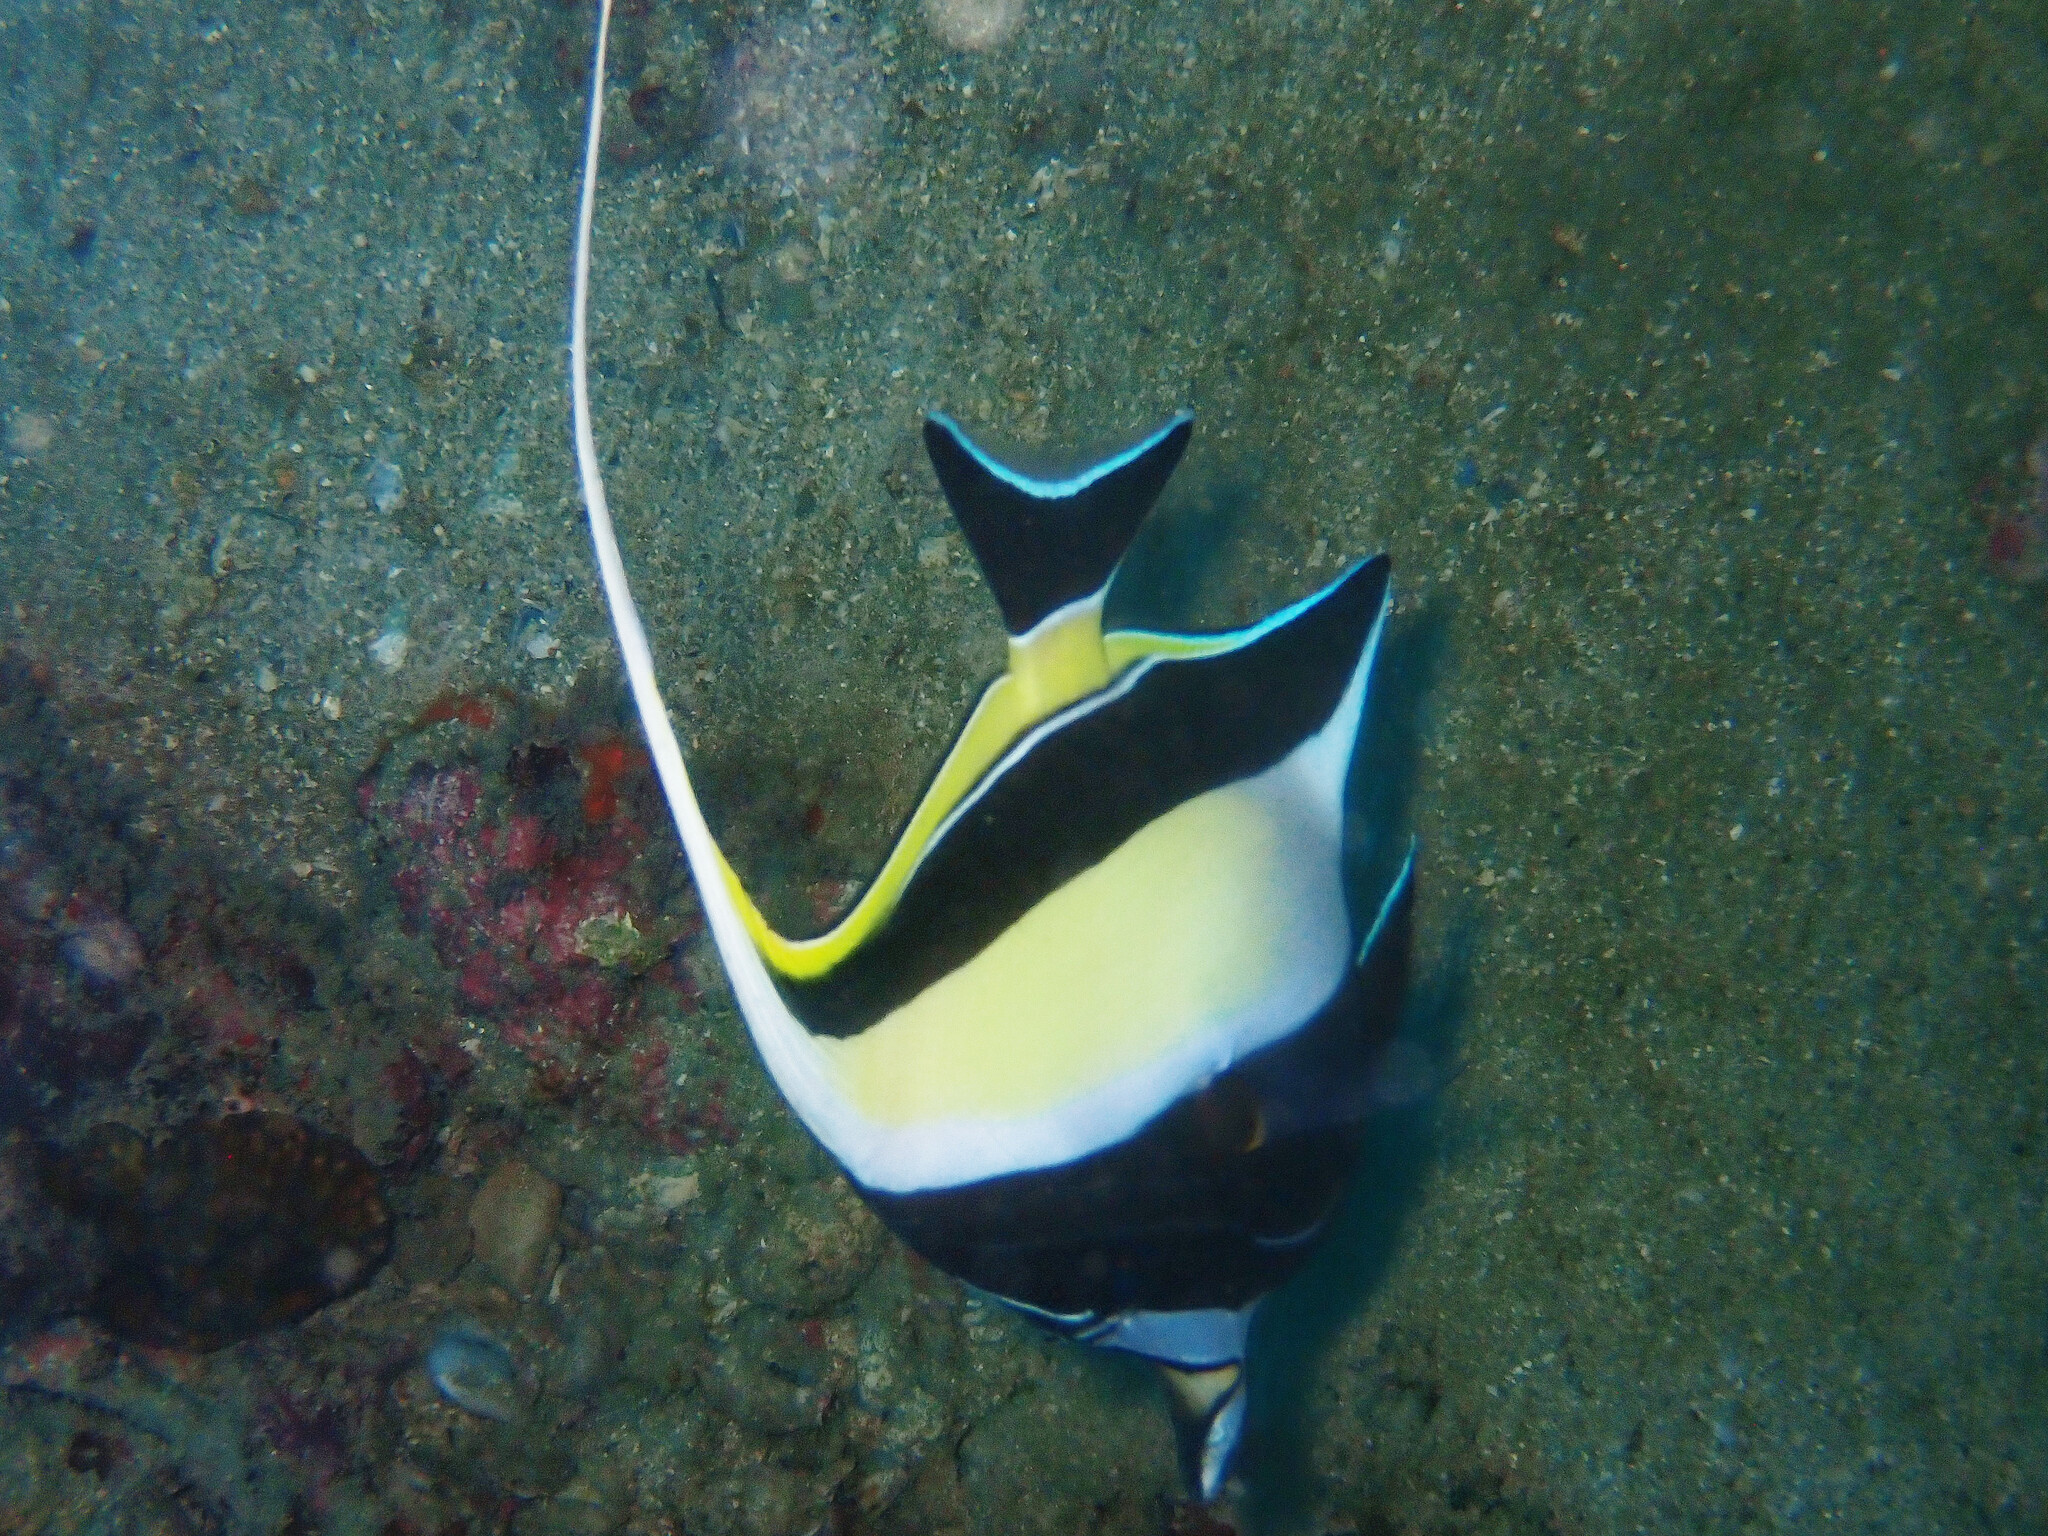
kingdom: Animalia
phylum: Chordata
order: Perciformes
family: Zanclidae
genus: Zanclus
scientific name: Zanclus cornutus
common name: Moorish idol
